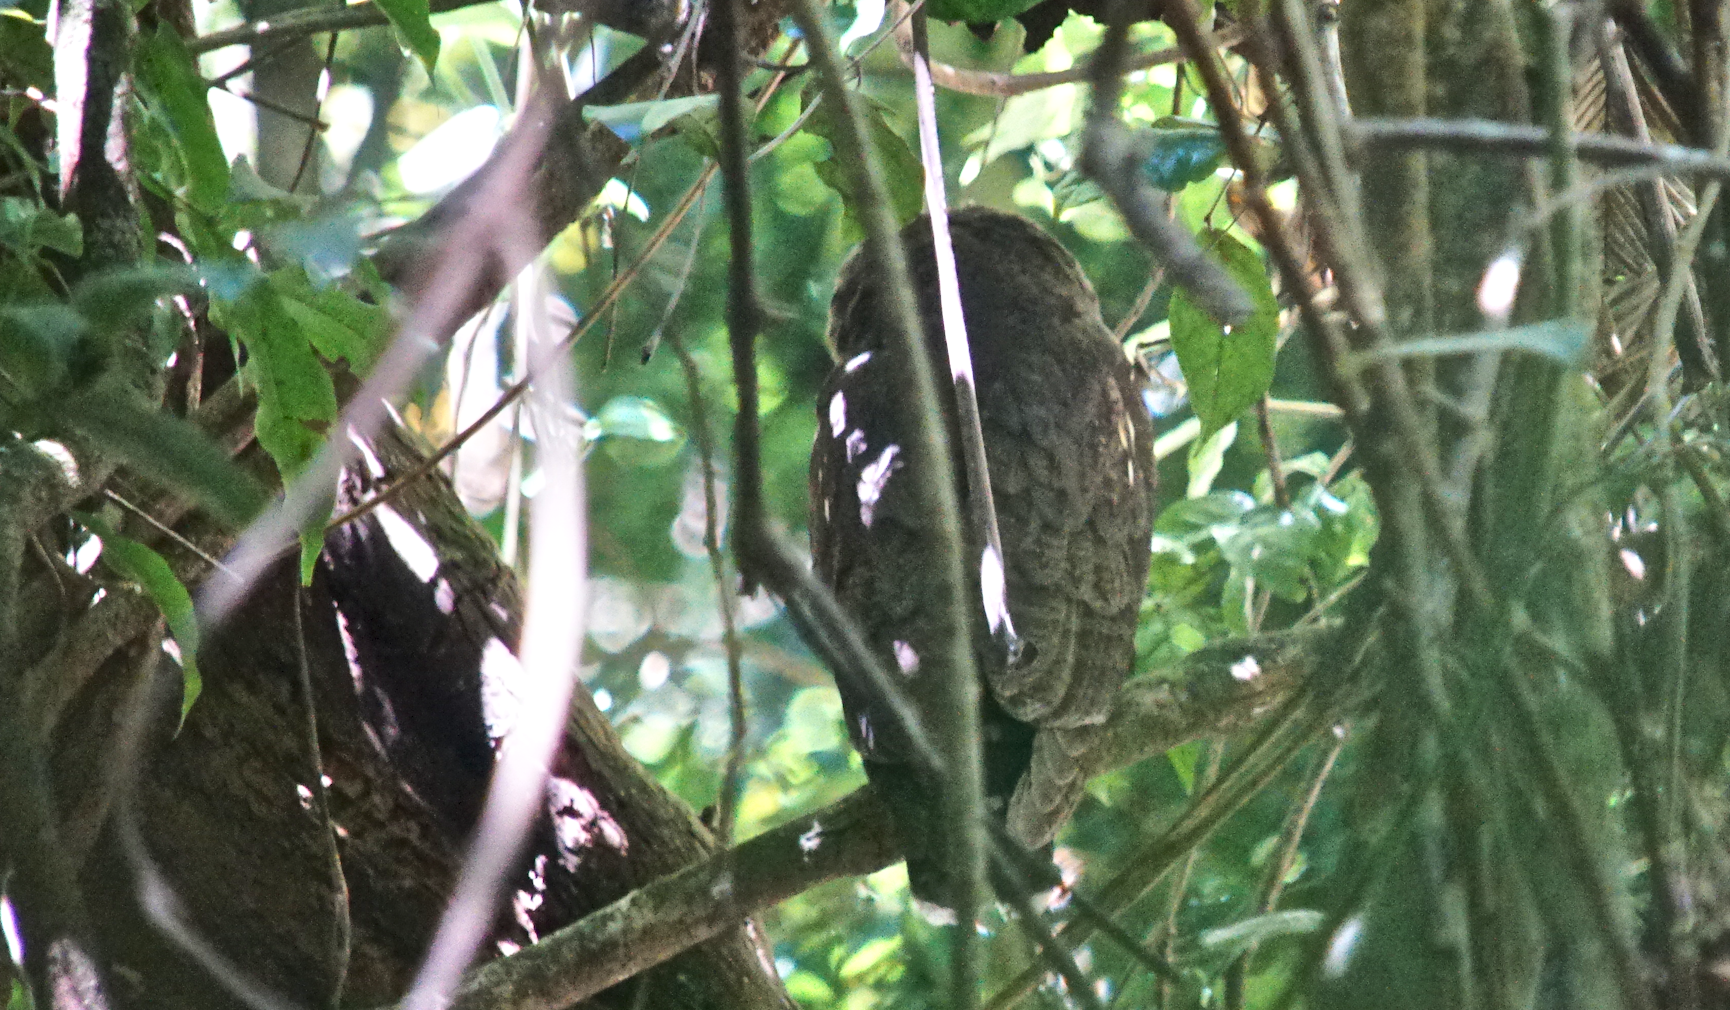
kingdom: Animalia
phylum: Chordata
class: Aves
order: Strigiformes
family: Strigidae
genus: Strix
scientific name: Strix virgata
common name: Mottled owl
